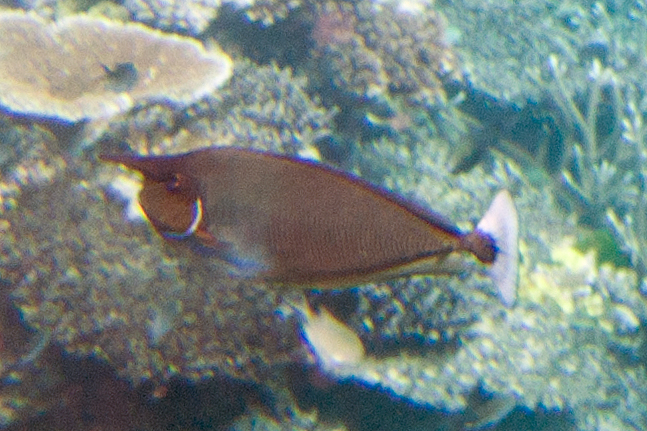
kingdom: Animalia
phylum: Chordata
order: Perciformes
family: Acanthuridae
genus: Naso
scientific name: Naso brevirostris
